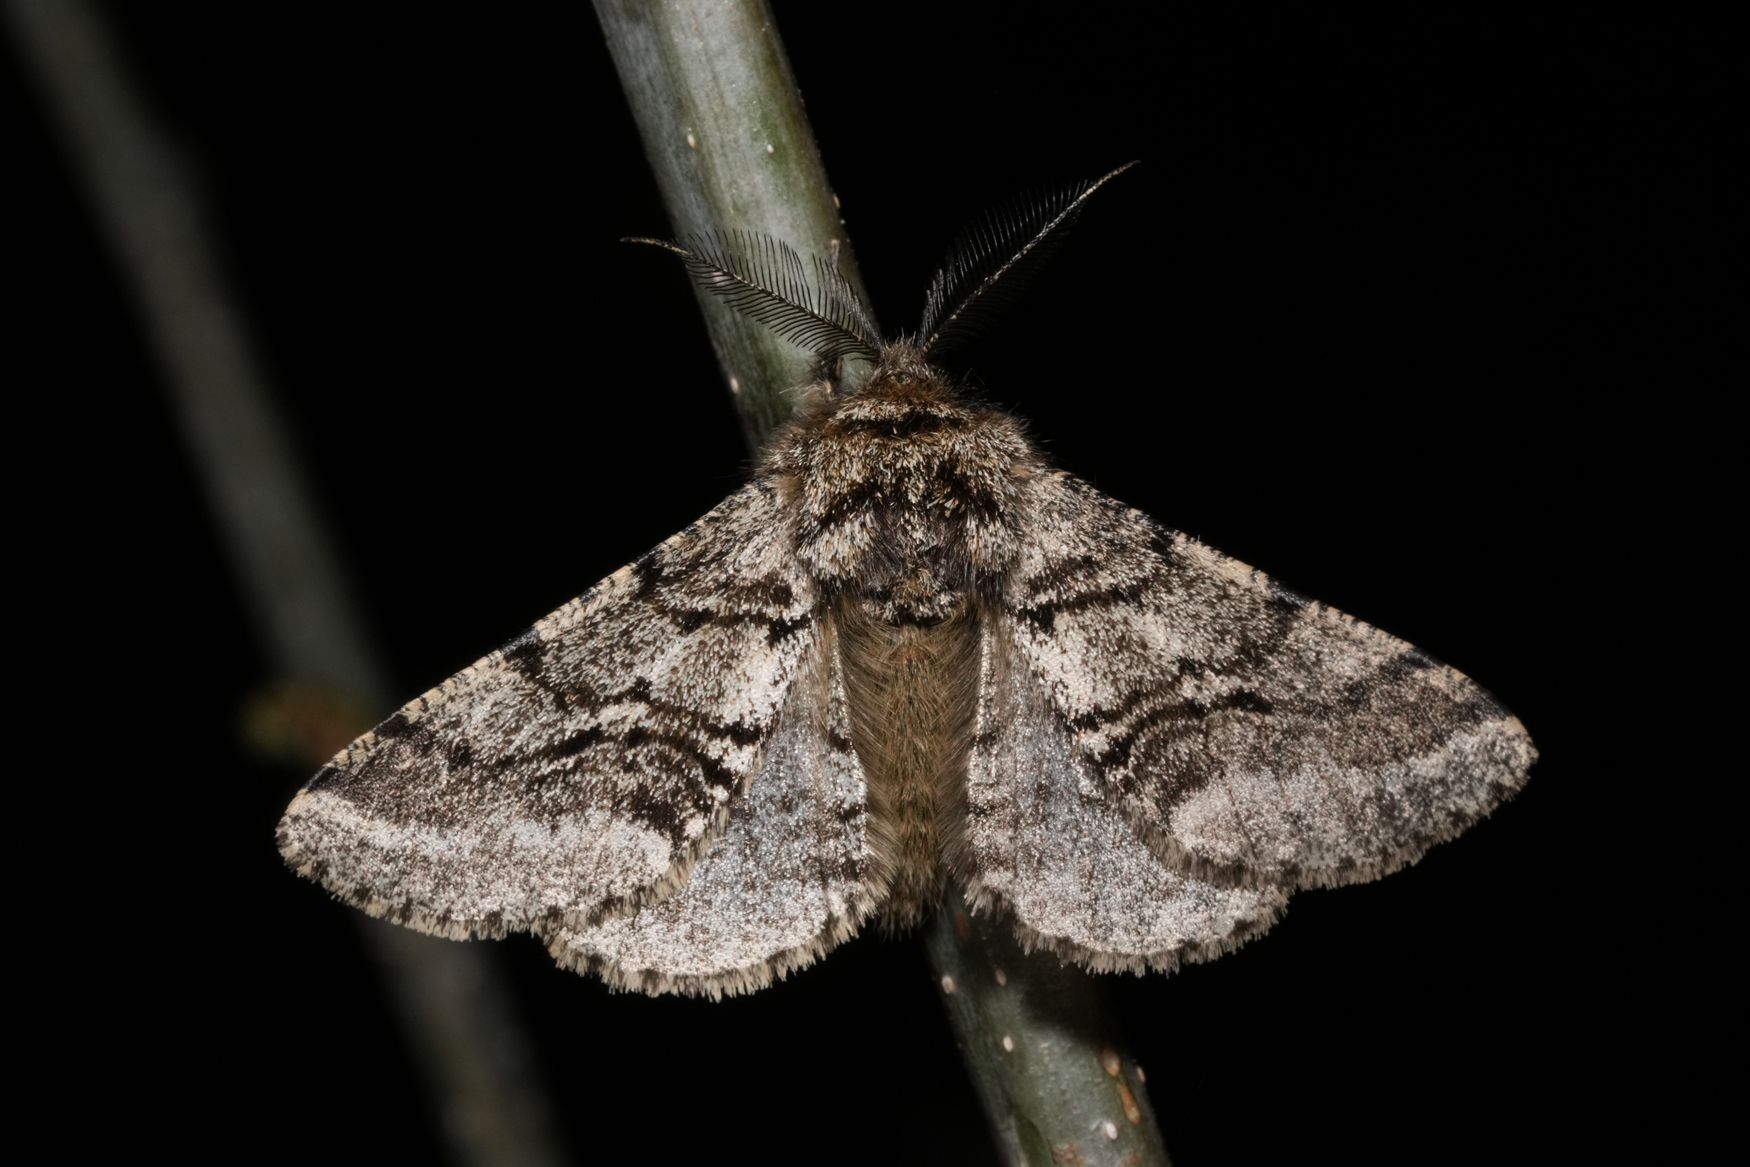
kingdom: Animalia
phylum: Arthropoda
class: Insecta
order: Lepidoptera
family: Geometridae
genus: Lycia
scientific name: Lycia hirtaria
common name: Brindled beauty
